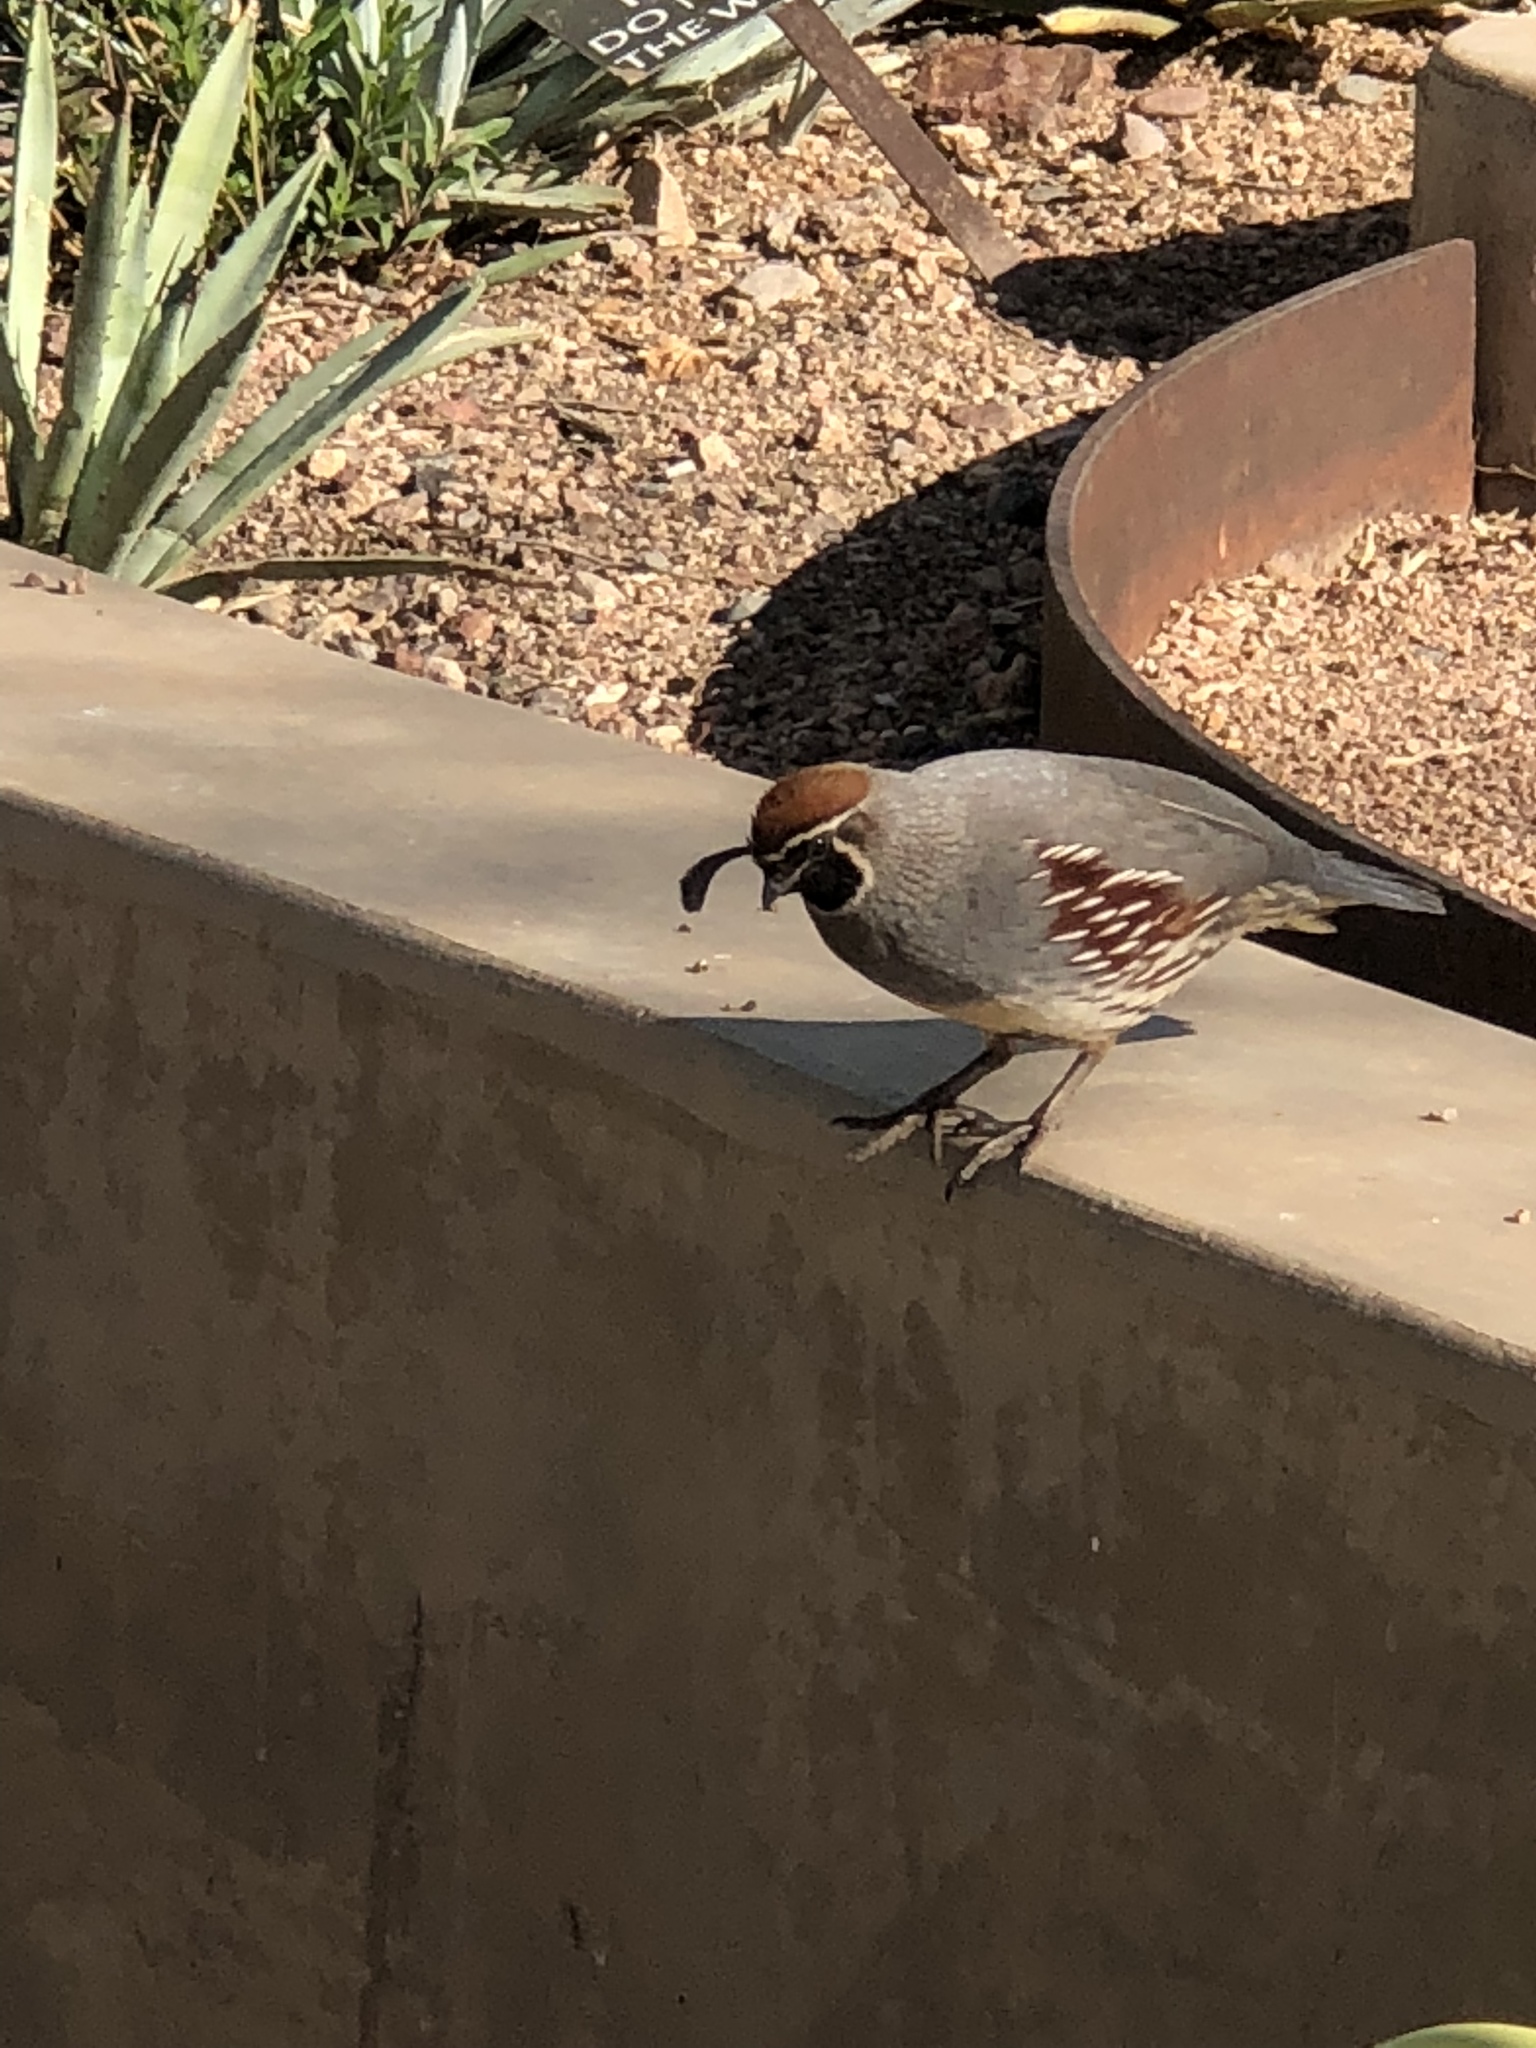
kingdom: Animalia
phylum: Chordata
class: Aves
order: Galliformes
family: Odontophoridae
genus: Callipepla
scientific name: Callipepla gambelii
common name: Gambel's quail
